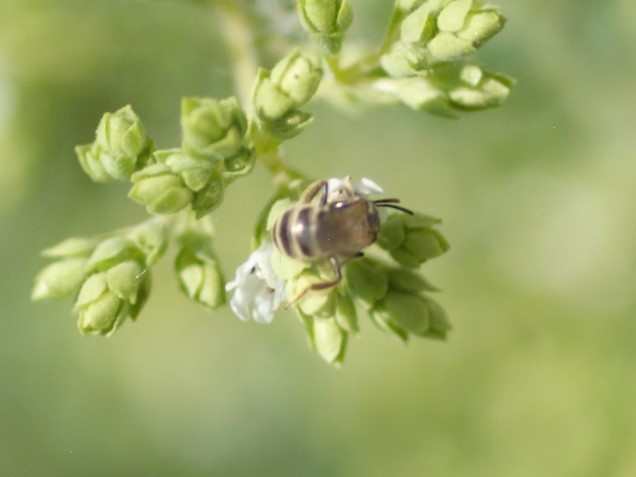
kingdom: Animalia
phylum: Arthropoda
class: Insecta
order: Hymenoptera
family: Halictidae
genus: Halictus
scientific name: Halictus tripartitus
